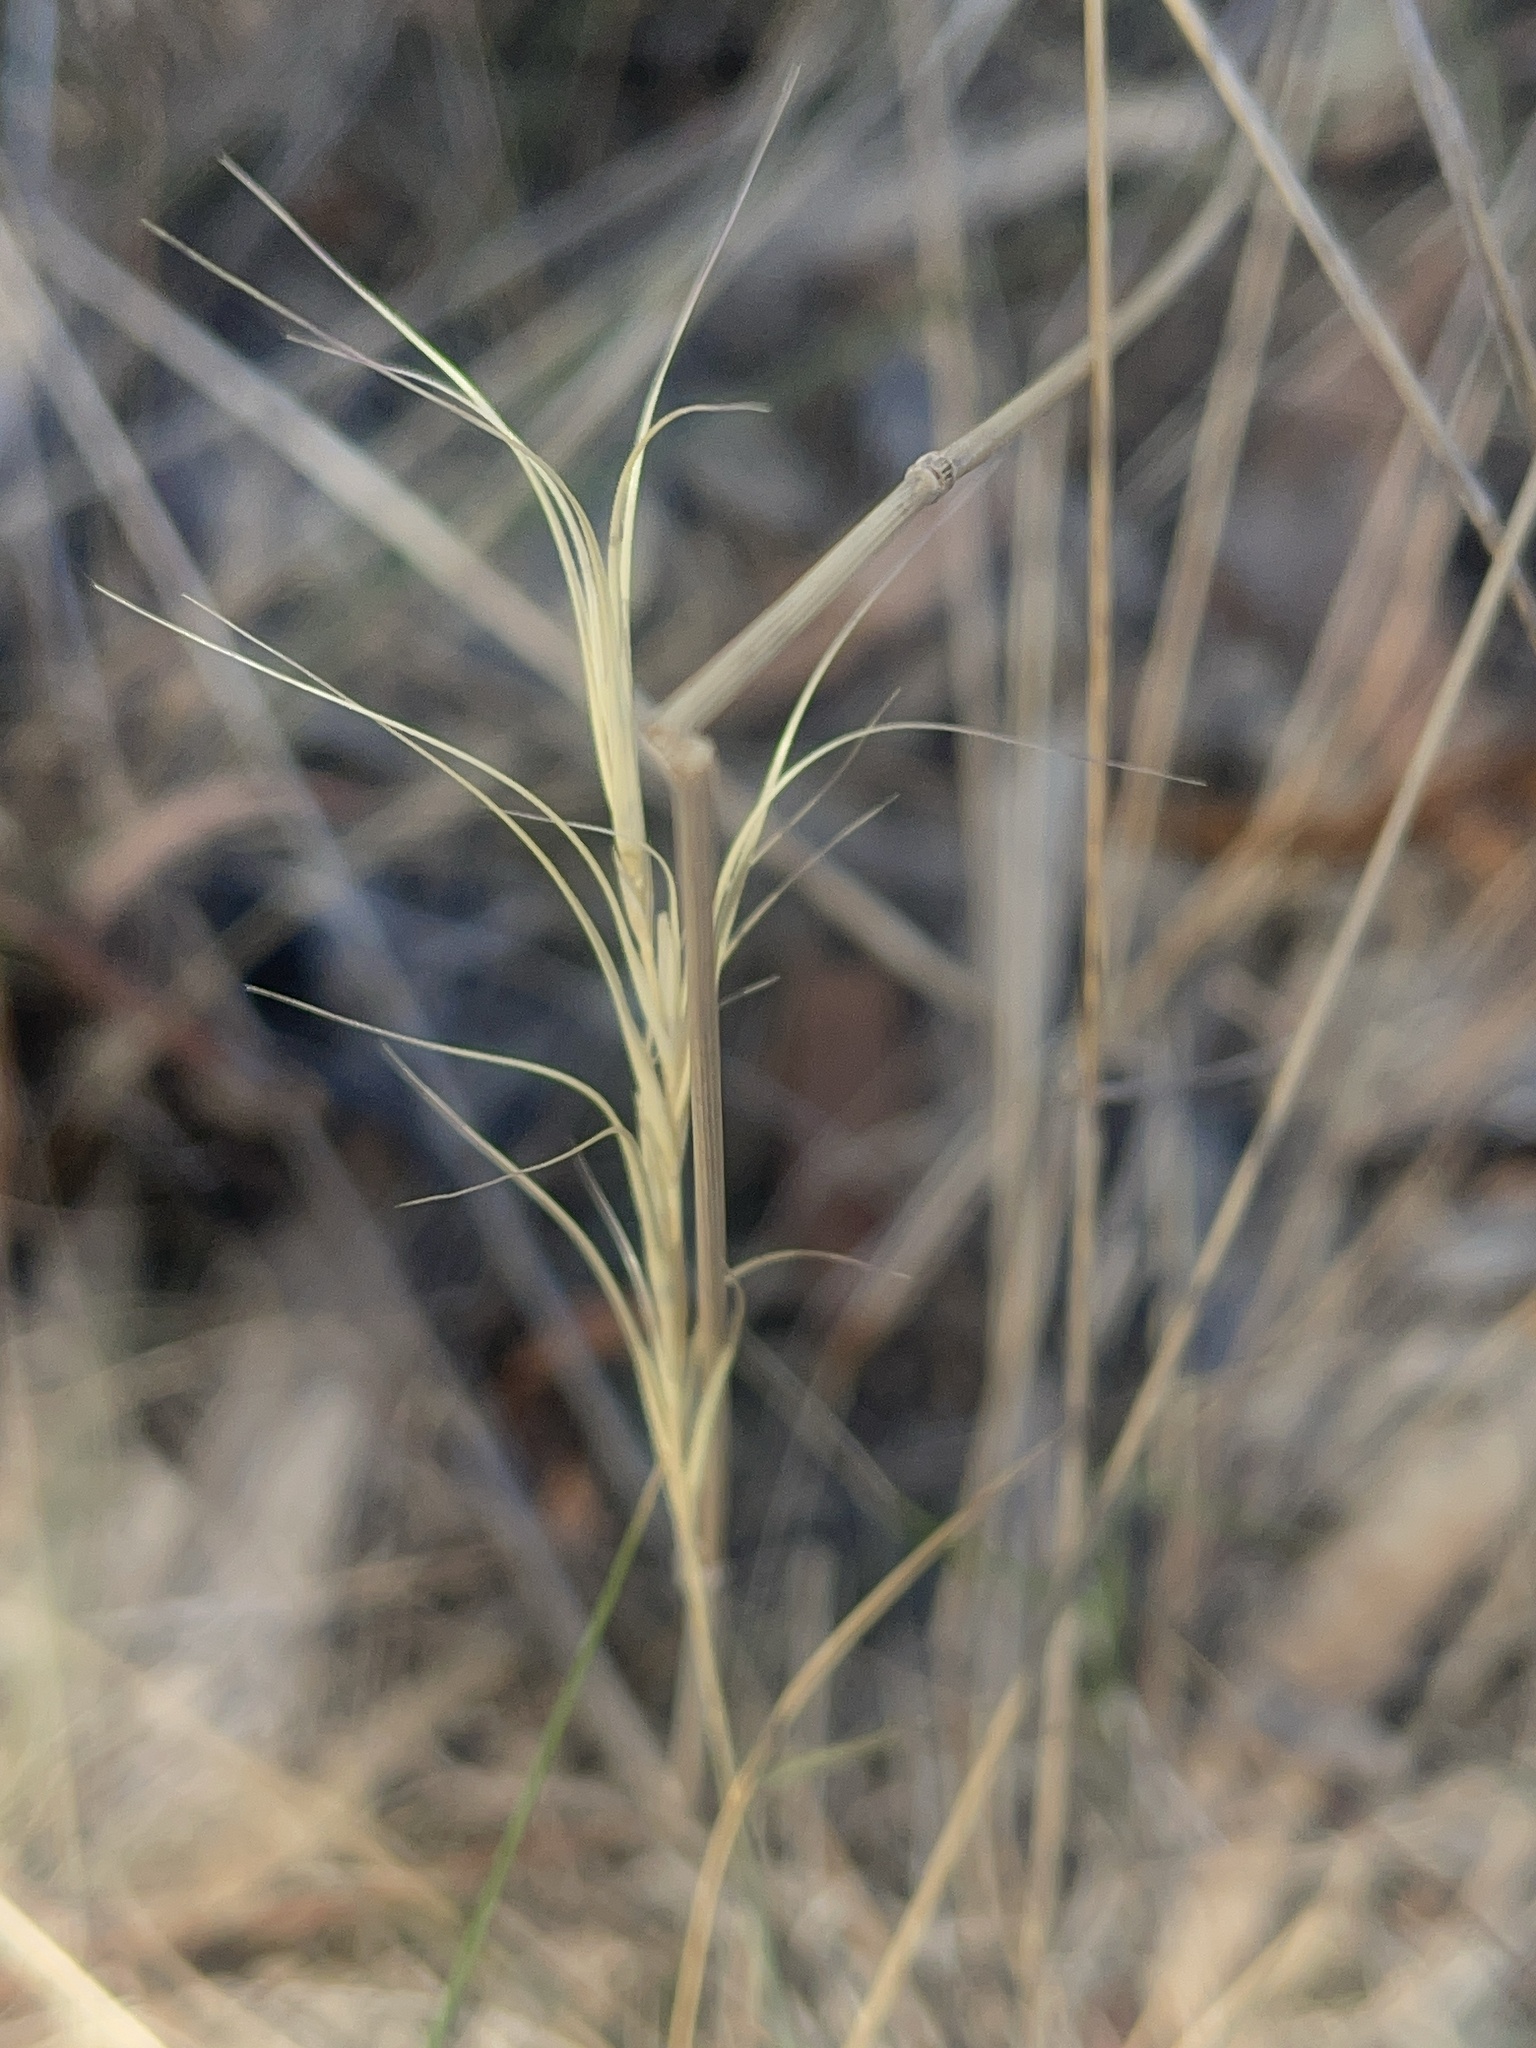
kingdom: Plantae
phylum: Tracheophyta
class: Liliopsida
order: Poales
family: Poaceae
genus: Anthosachne
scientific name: Anthosachne scabra
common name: Common wheatgrass
